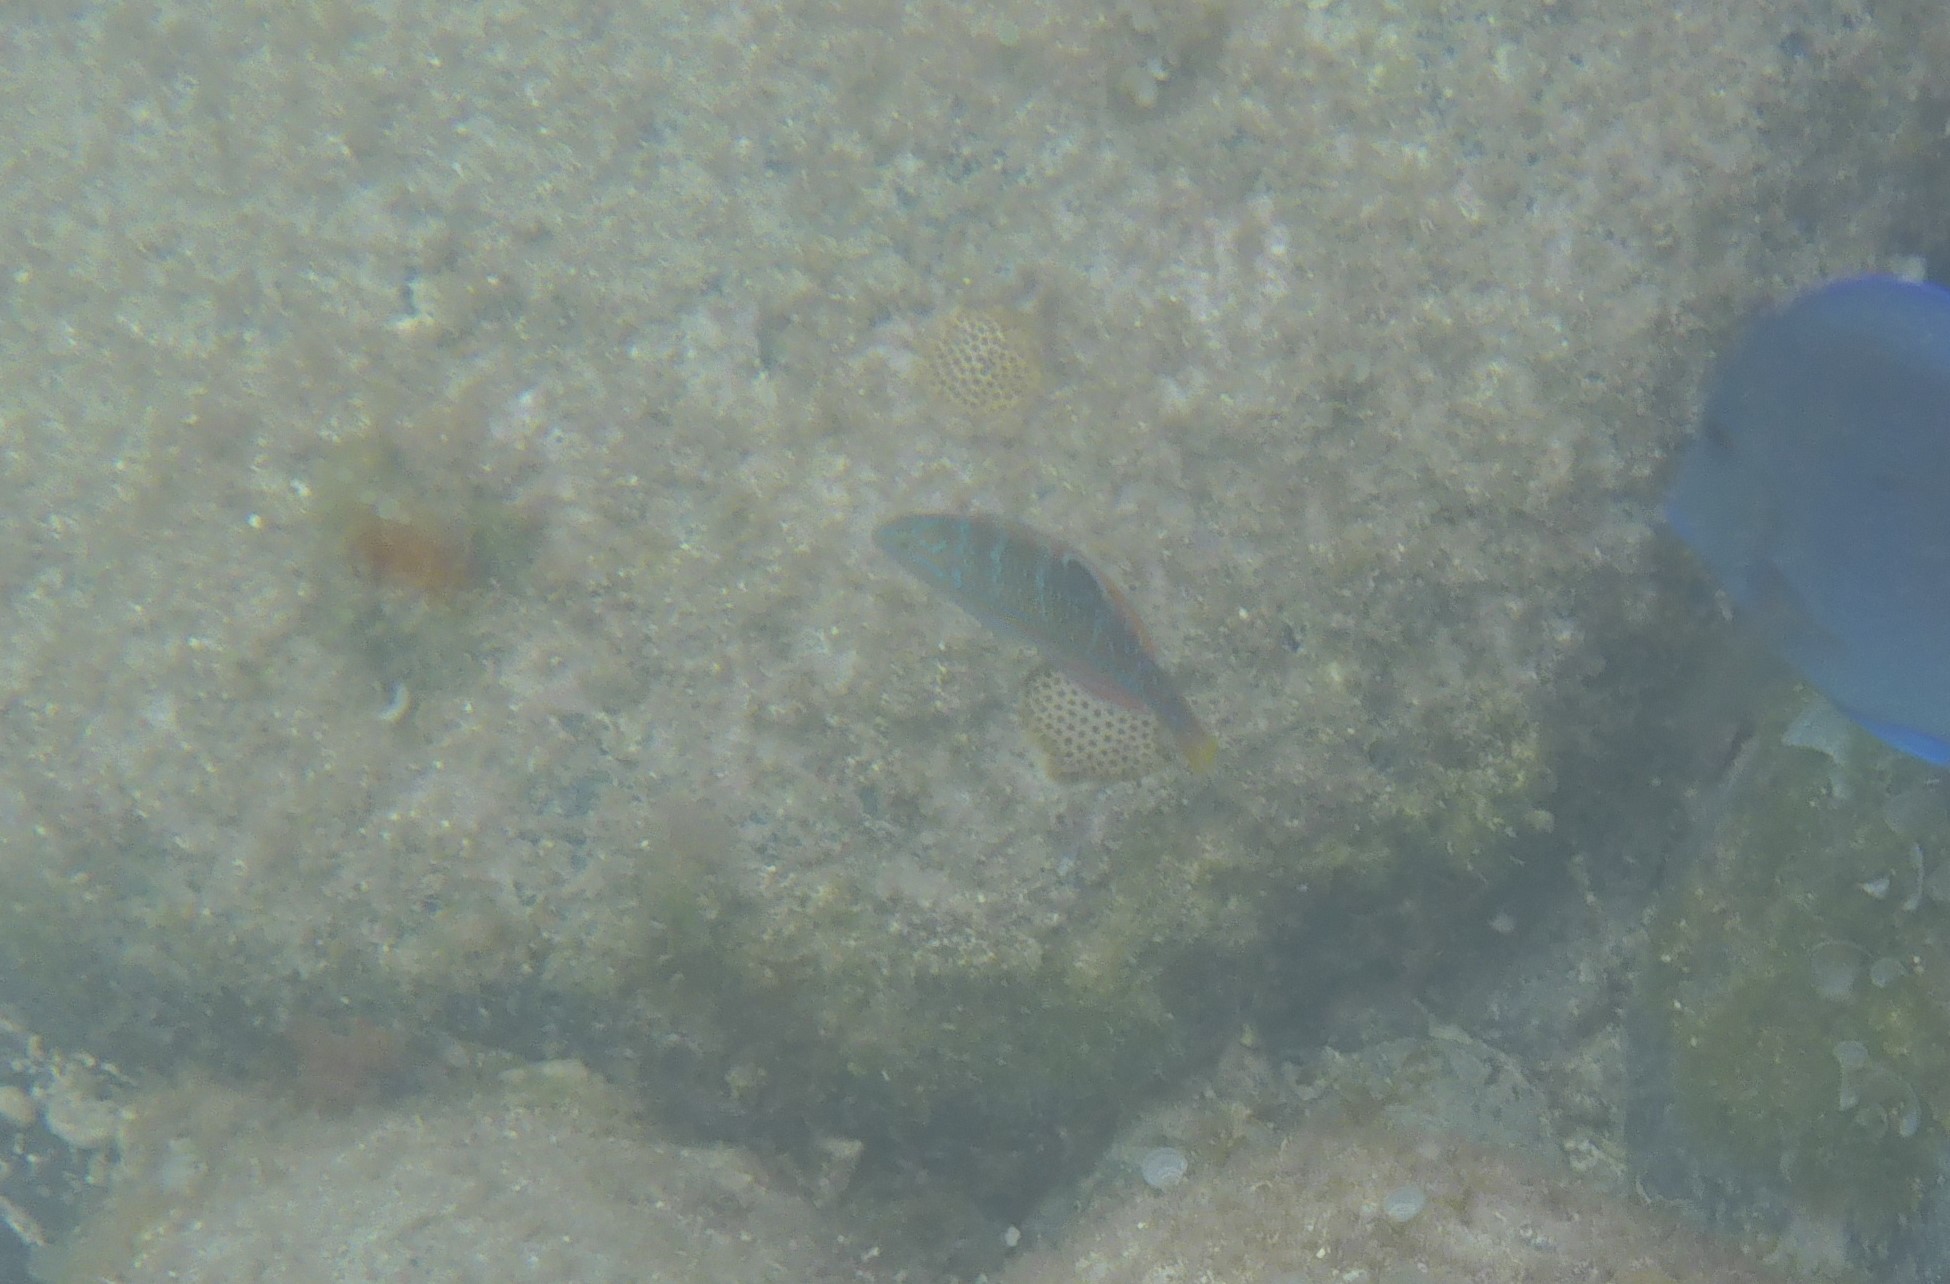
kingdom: Animalia
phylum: Chordata
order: Perciformes
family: Labridae
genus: Halichoeres
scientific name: Halichoeres radiatus
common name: Puddingwife
